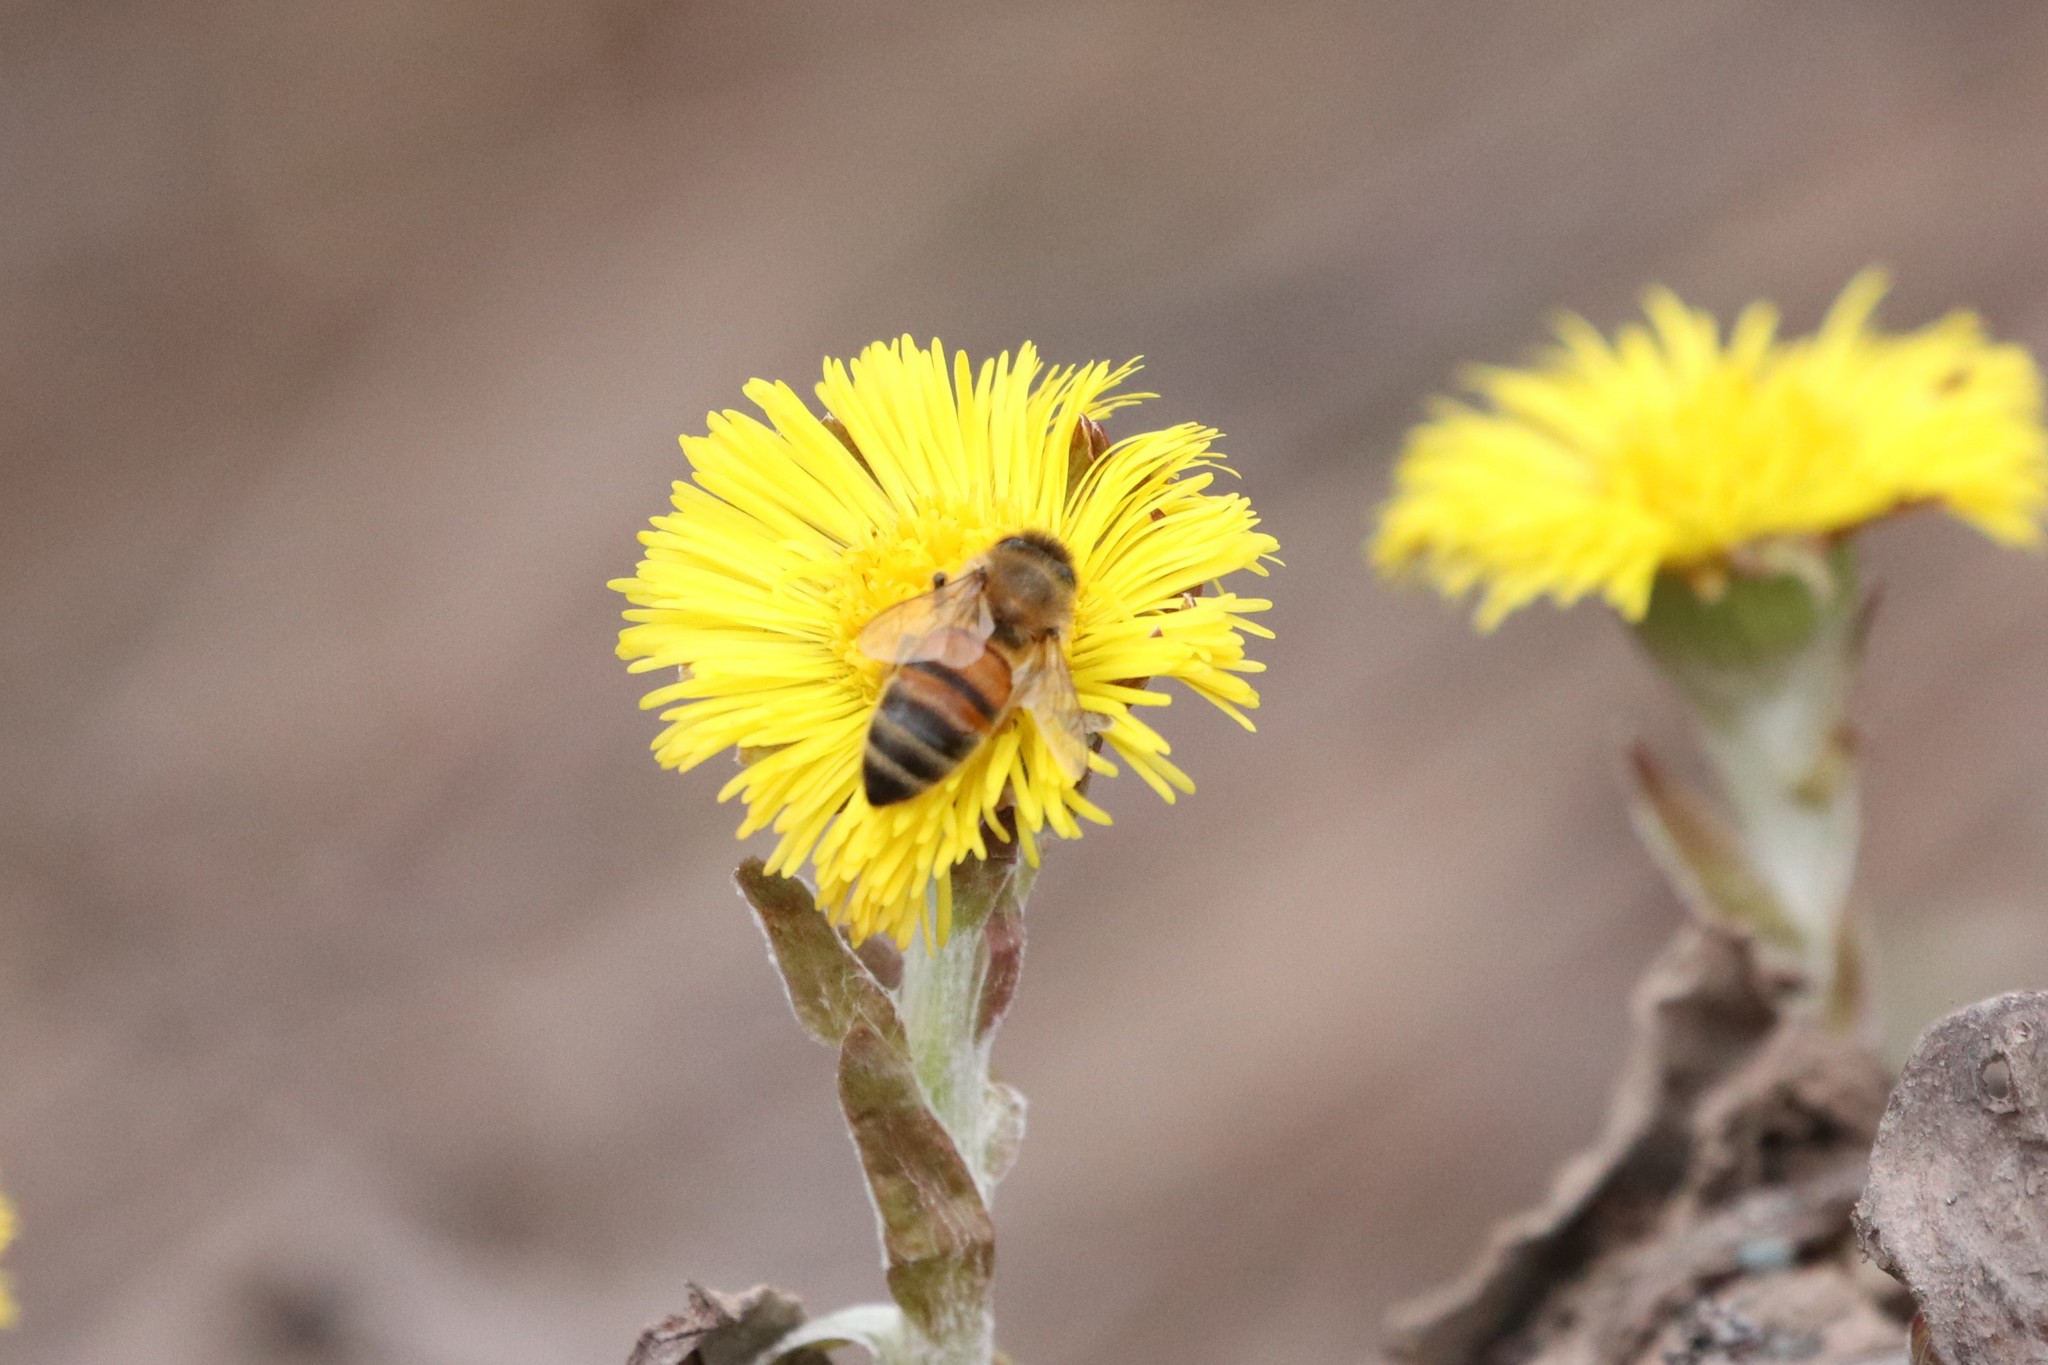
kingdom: Animalia
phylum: Arthropoda
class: Insecta
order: Hymenoptera
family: Apidae
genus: Apis
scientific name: Apis mellifera
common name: Honey bee
